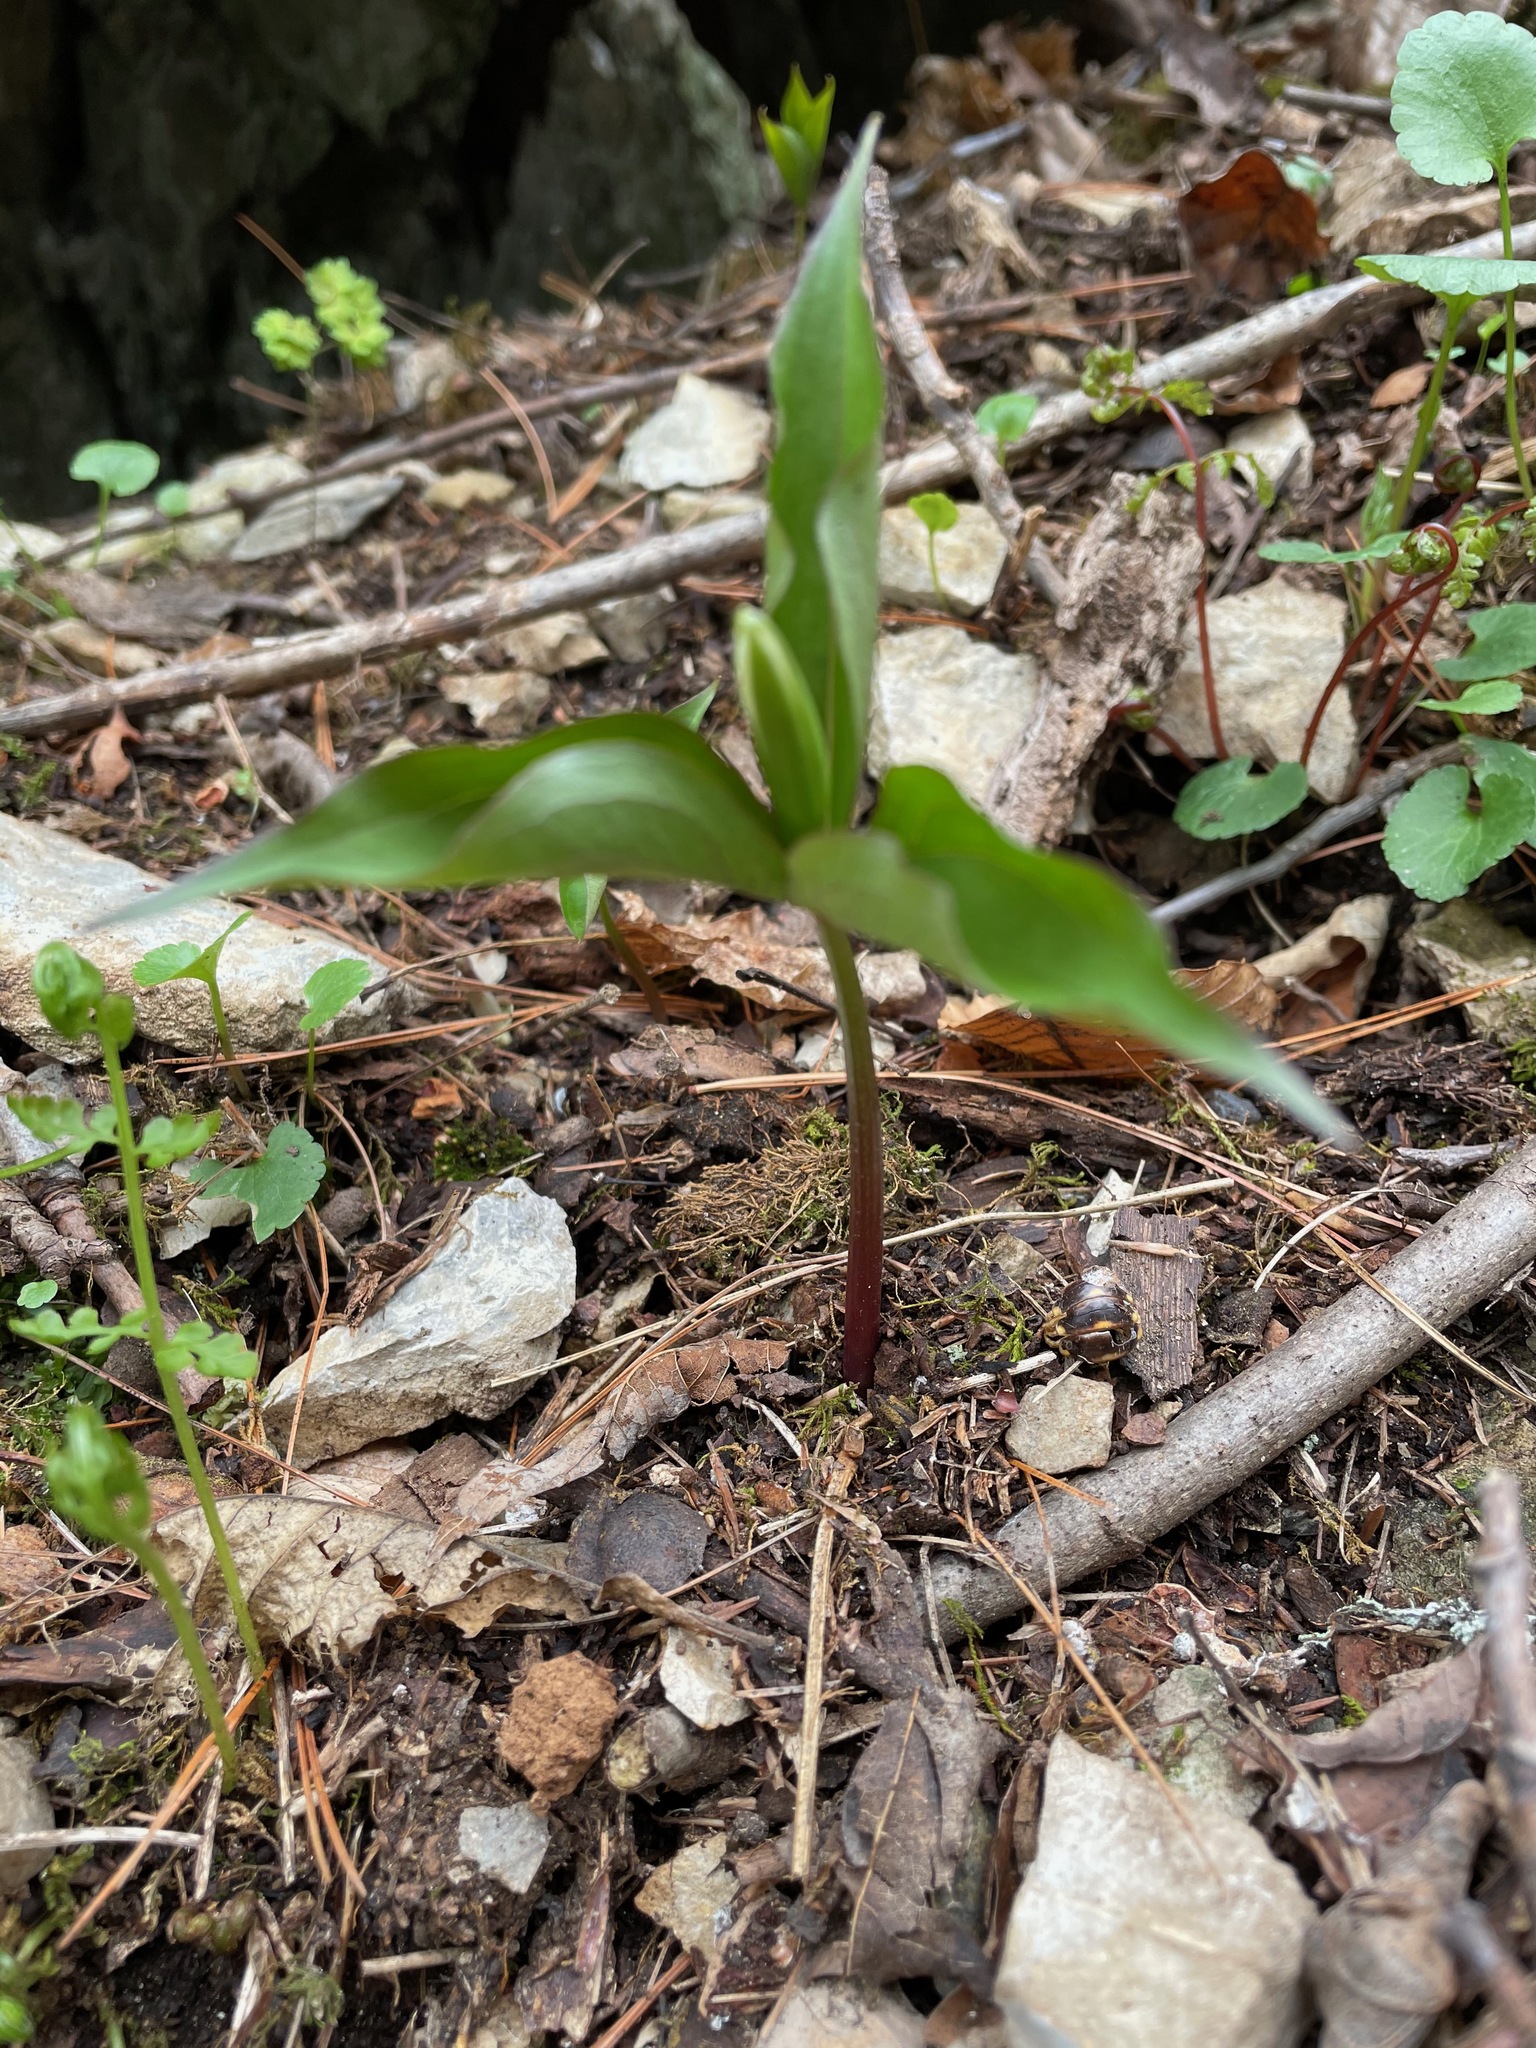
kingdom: Plantae
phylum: Tracheophyta
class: Liliopsida
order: Liliales
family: Melanthiaceae
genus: Trillium
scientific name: Trillium grandiflorum
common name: Great white trillium
